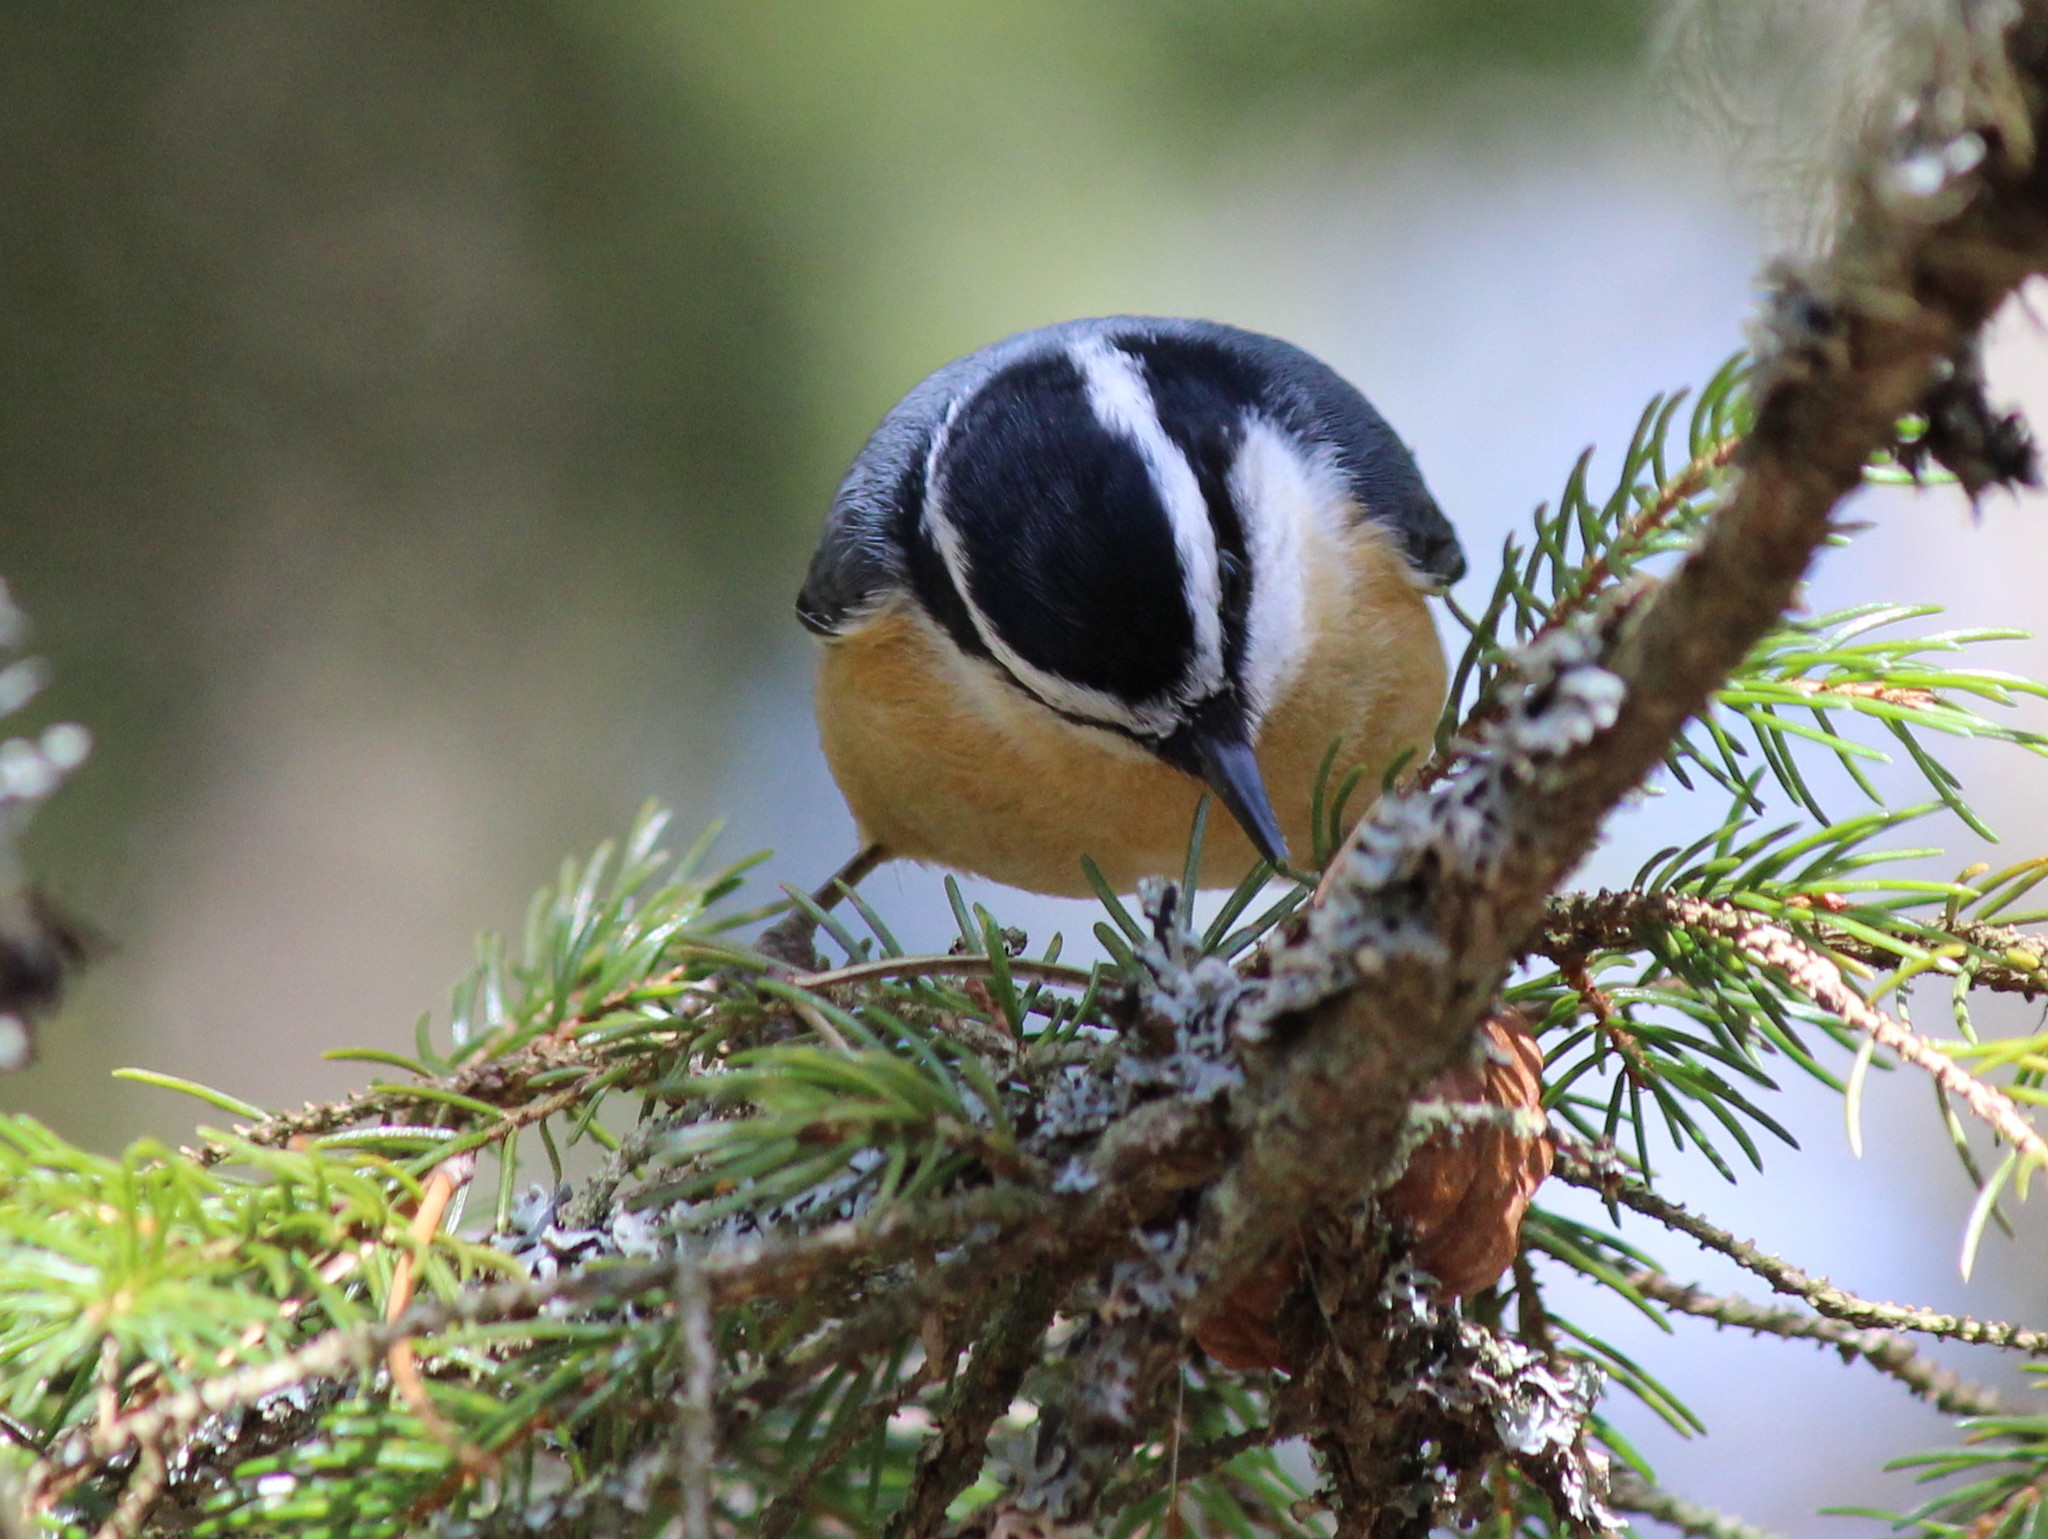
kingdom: Animalia
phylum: Chordata
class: Aves
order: Passeriformes
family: Sittidae
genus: Sitta
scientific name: Sitta canadensis
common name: Red-breasted nuthatch
